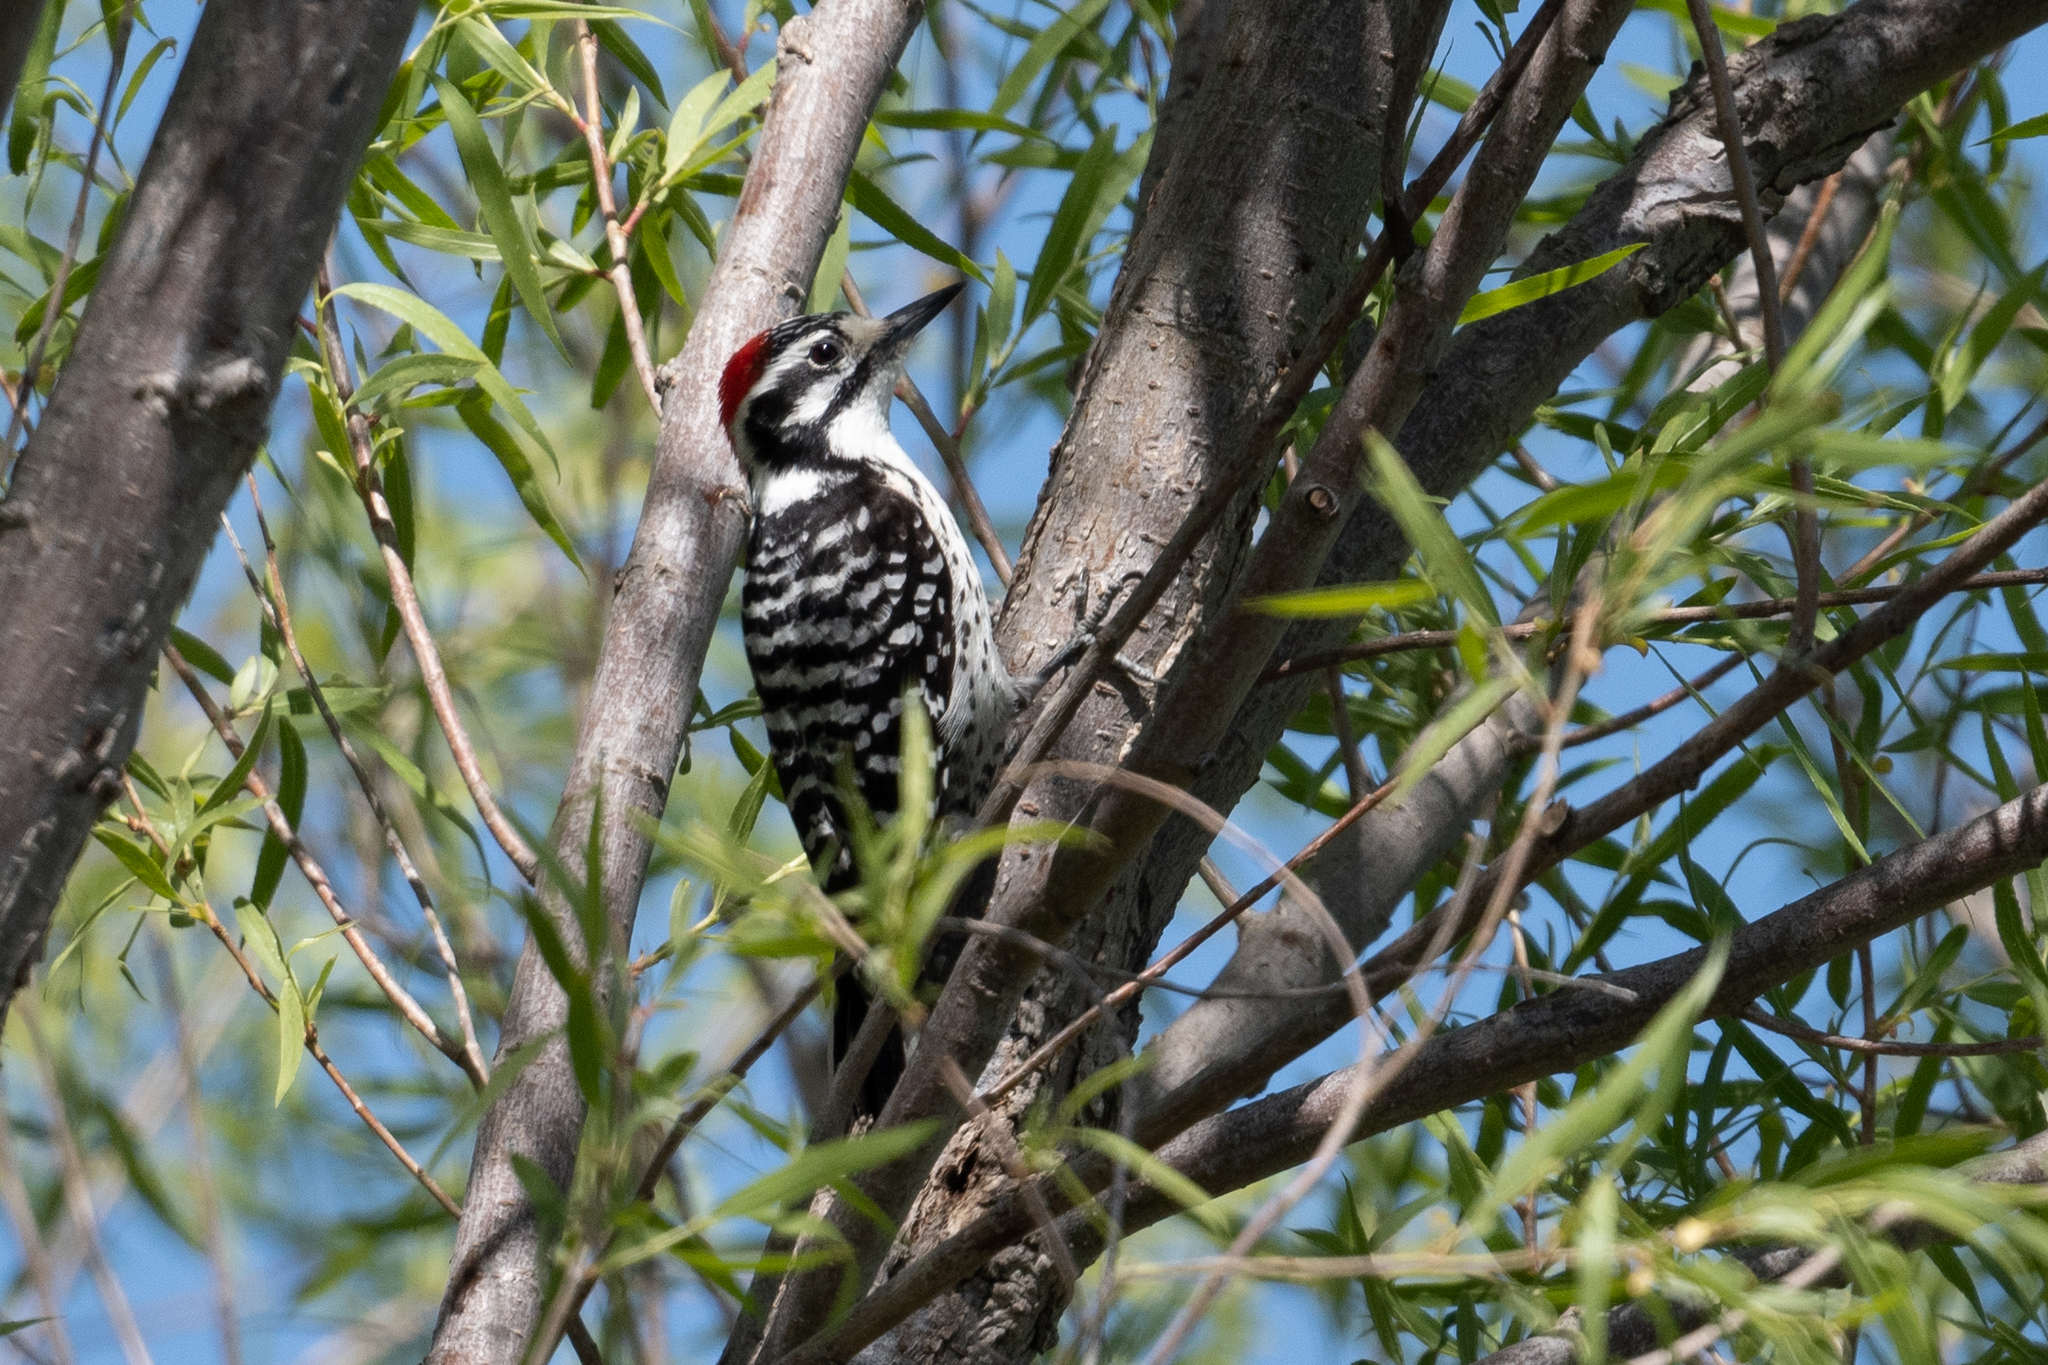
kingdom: Animalia
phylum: Chordata
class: Aves
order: Piciformes
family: Picidae
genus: Dryobates
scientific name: Dryobates nuttallii
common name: Nuttall's woodpecker
